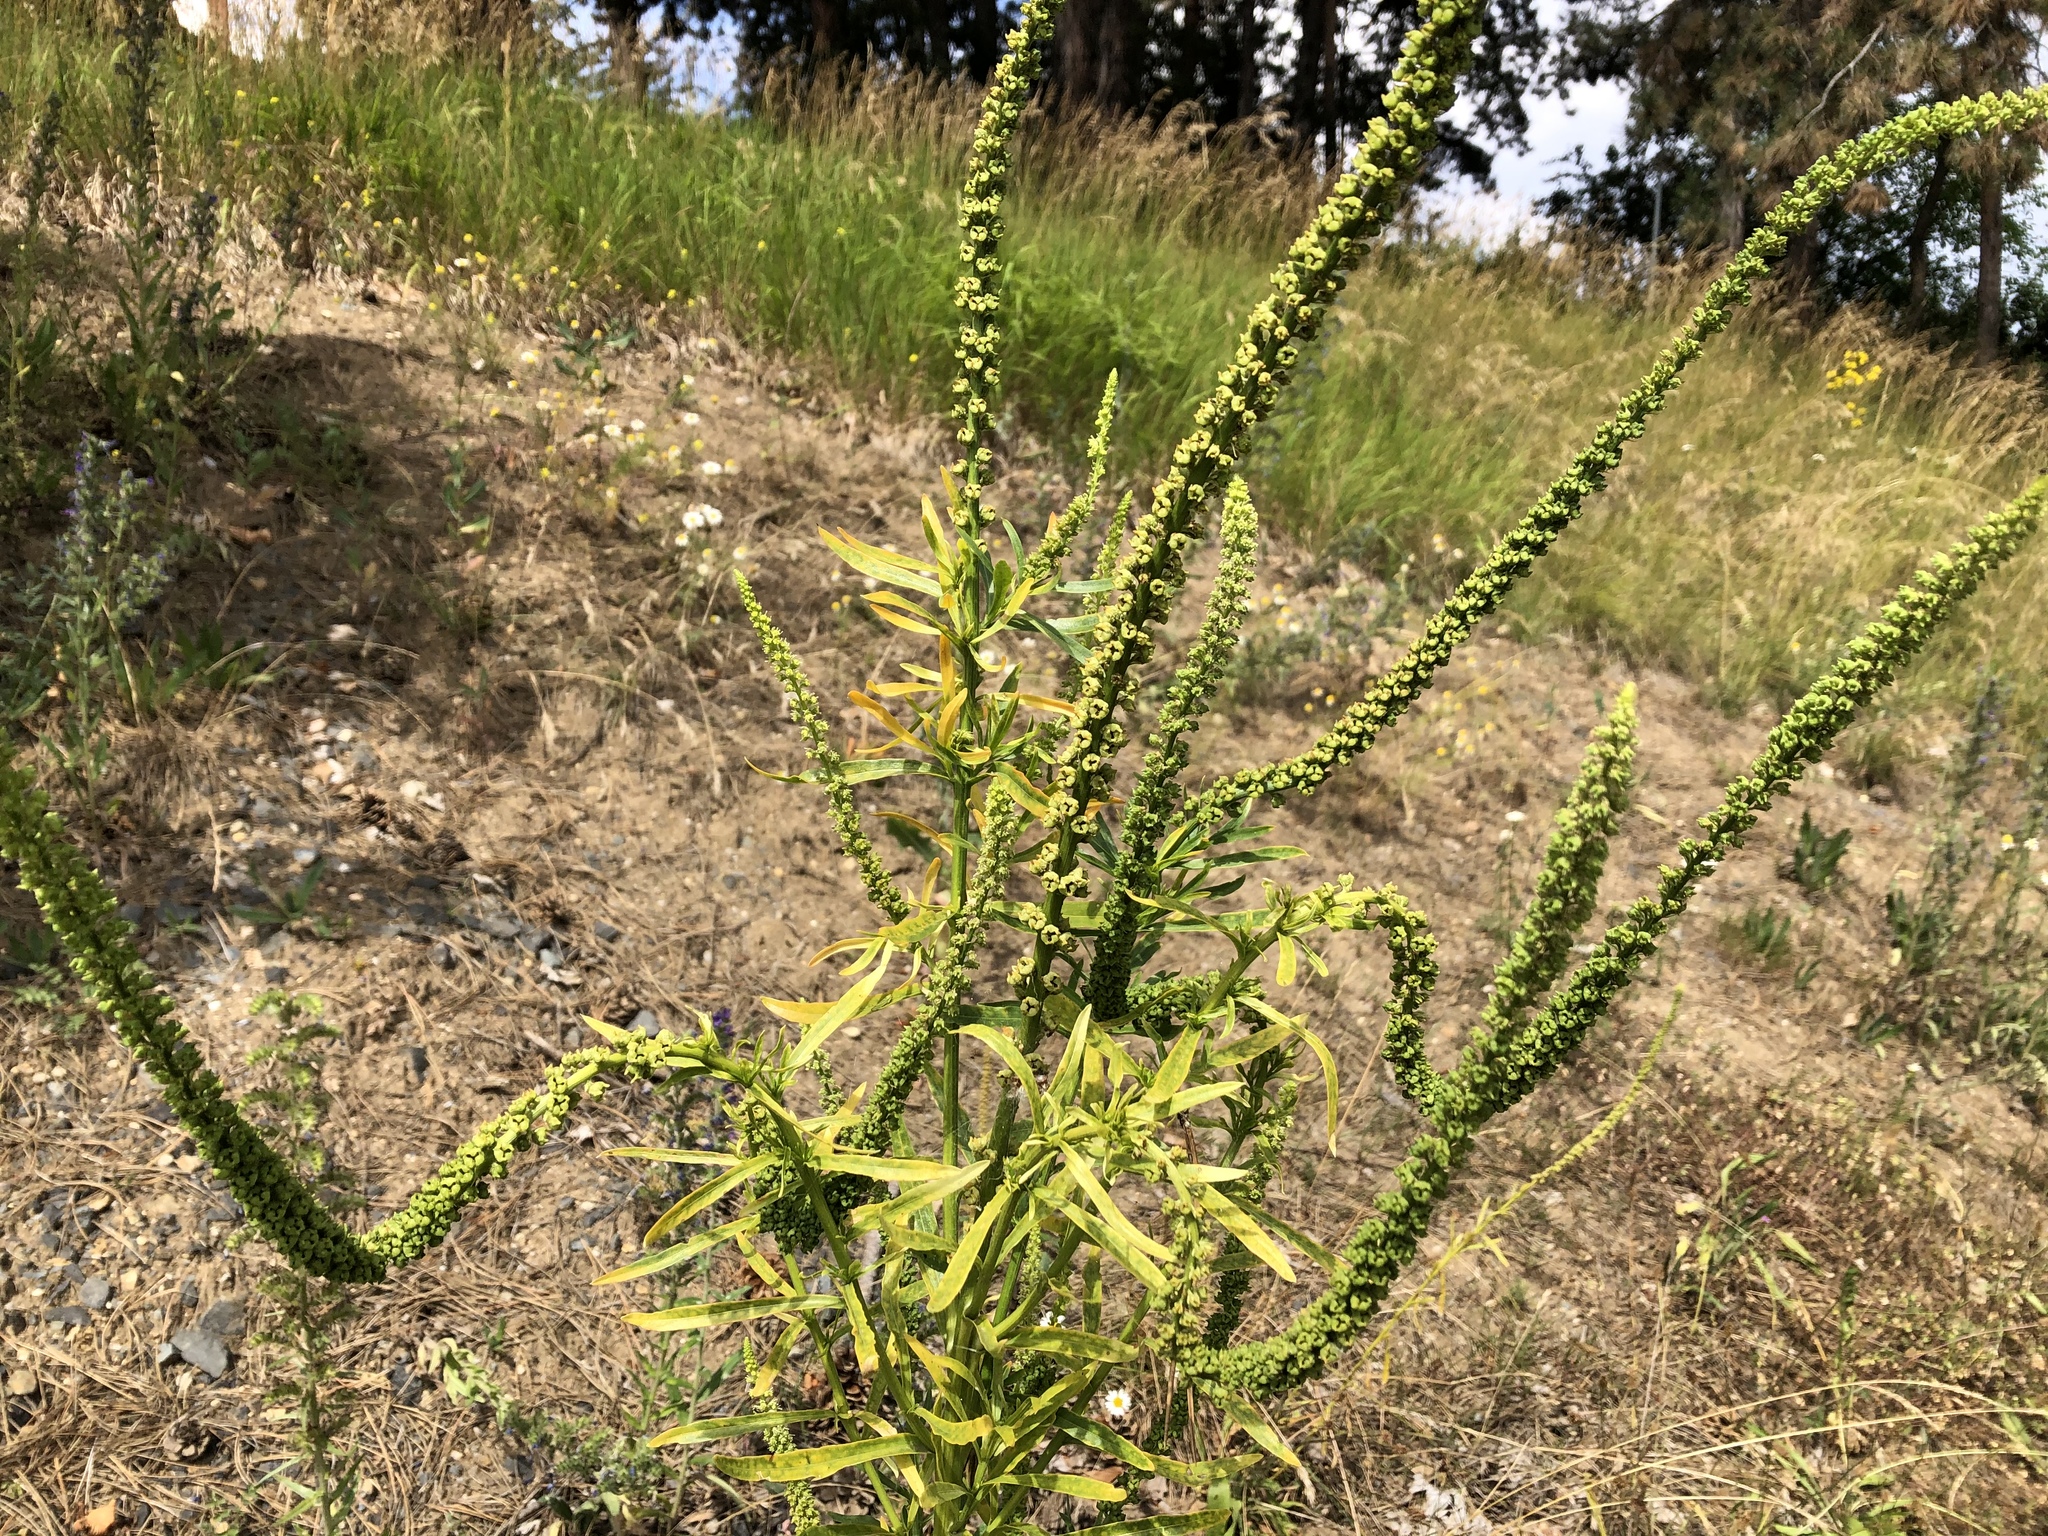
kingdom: Plantae
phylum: Tracheophyta
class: Magnoliopsida
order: Brassicales
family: Resedaceae
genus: Reseda
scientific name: Reseda luteola
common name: Weld
